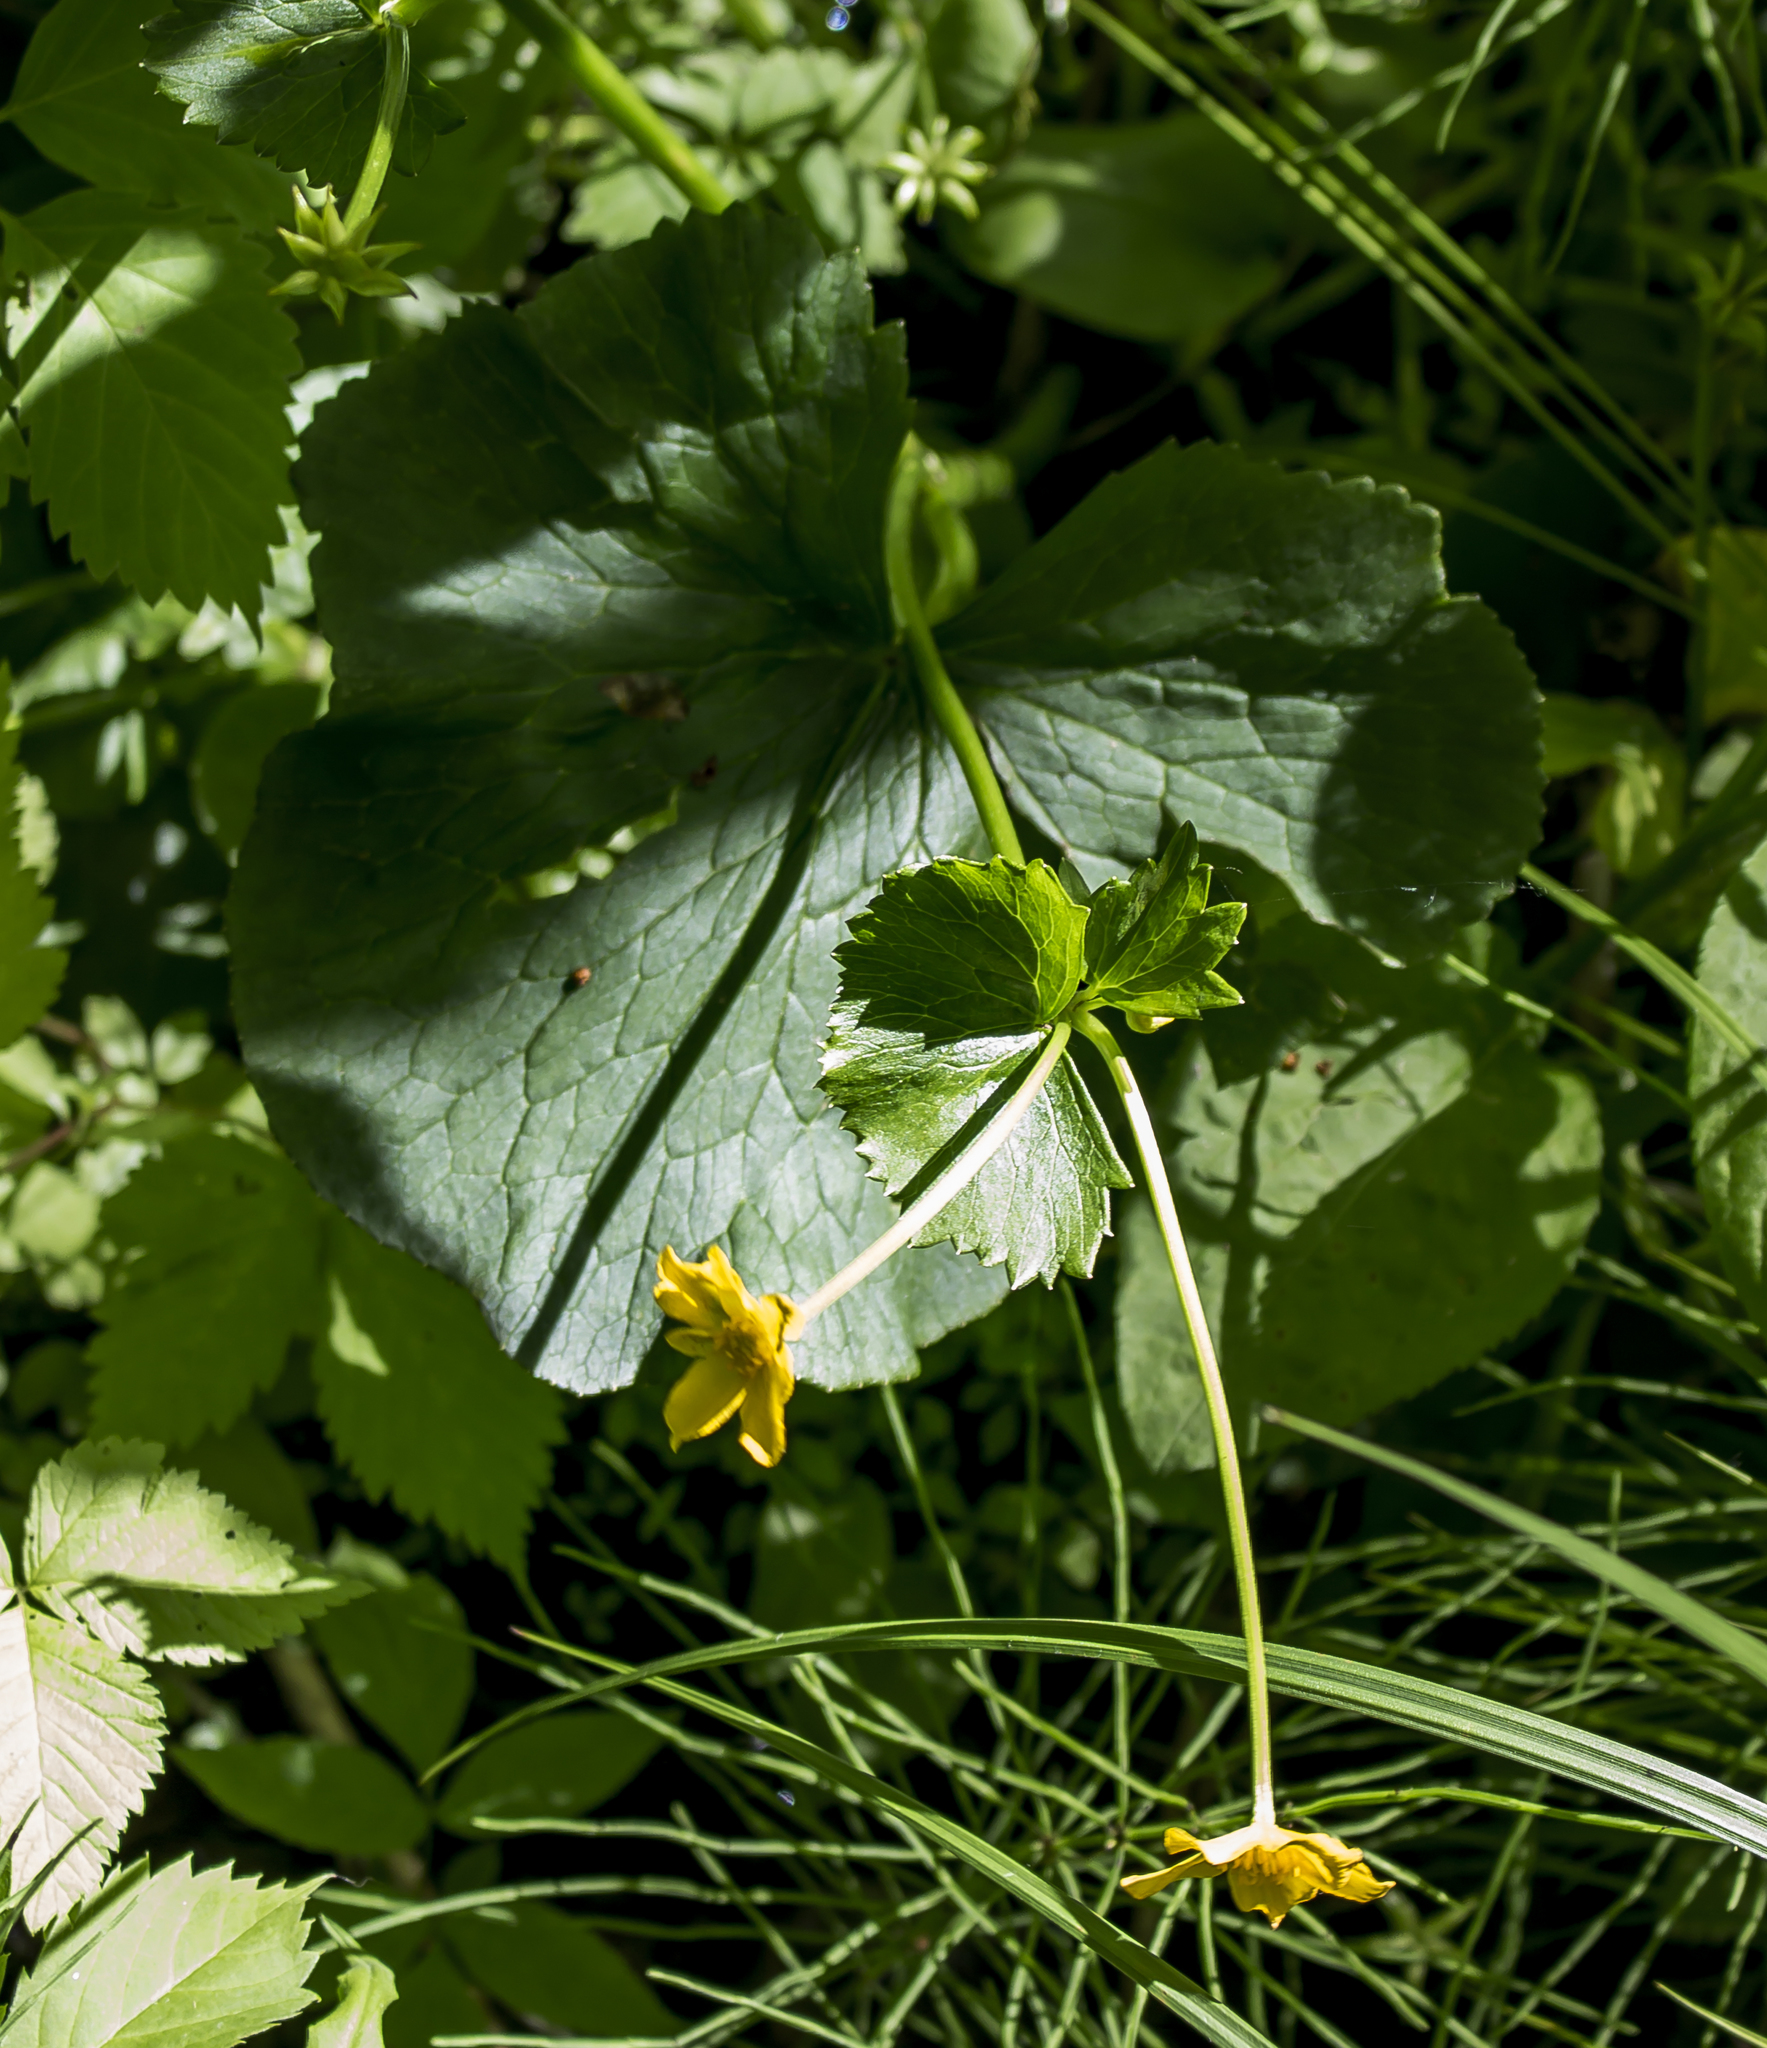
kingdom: Plantae
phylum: Tracheophyta
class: Magnoliopsida
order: Ranunculales
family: Ranunculaceae
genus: Caltha
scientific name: Caltha palustris
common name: Marsh marigold
